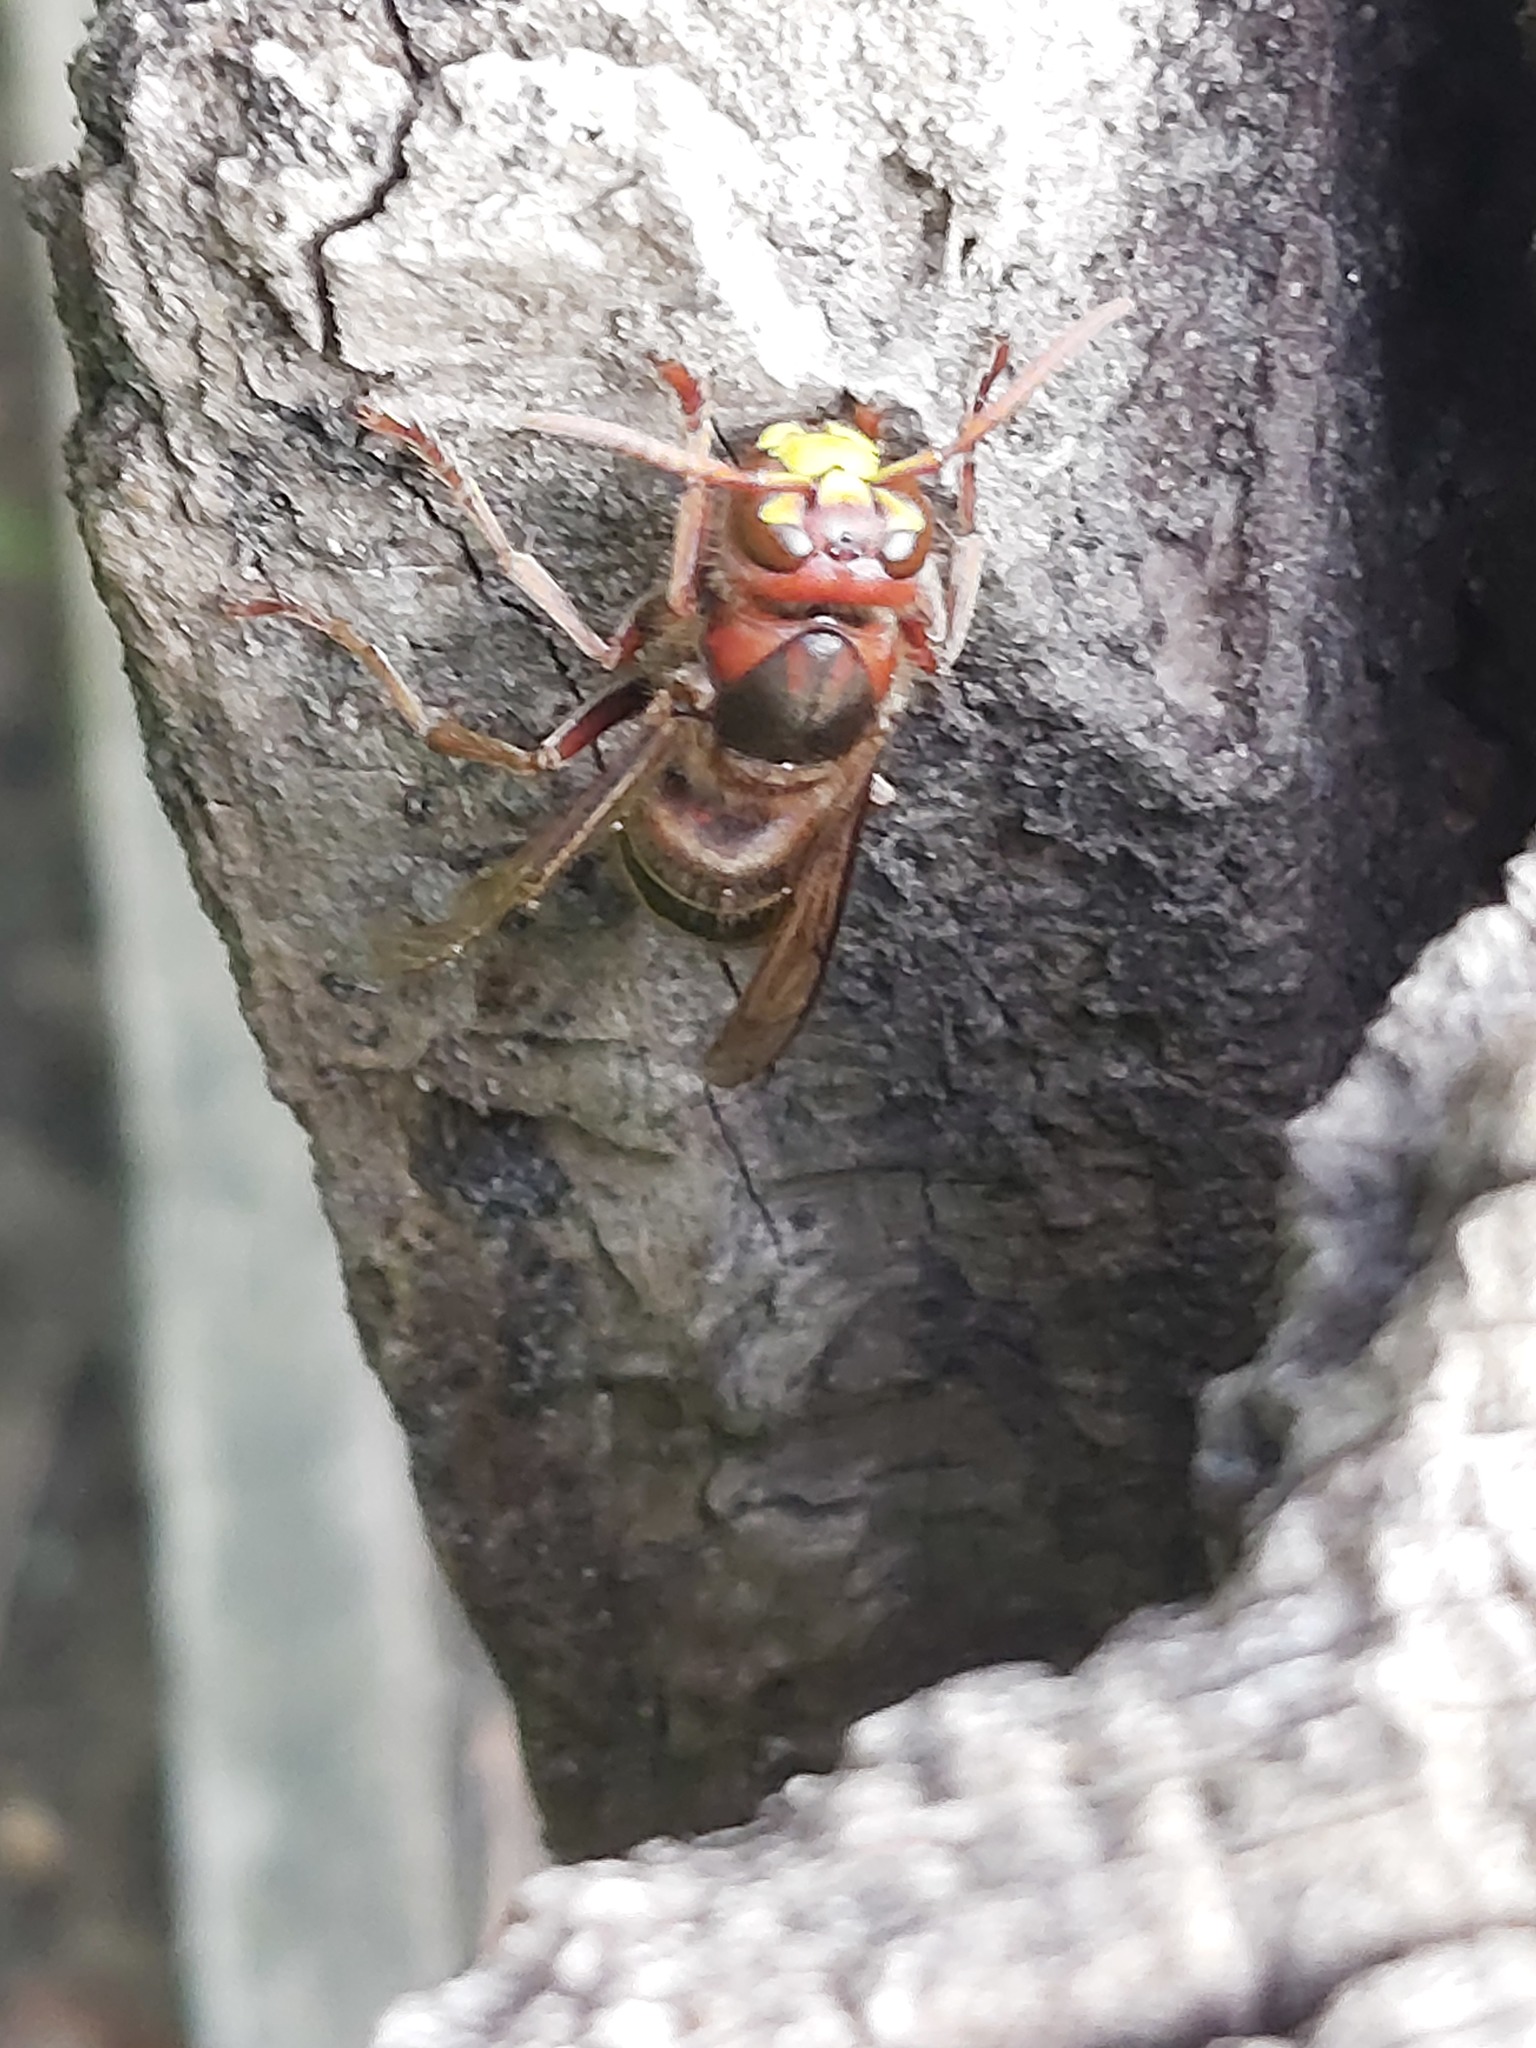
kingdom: Animalia
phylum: Arthropoda
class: Insecta
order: Hymenoptera
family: Vespidae
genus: Vespa
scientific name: Vespa crabro
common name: Hornet
